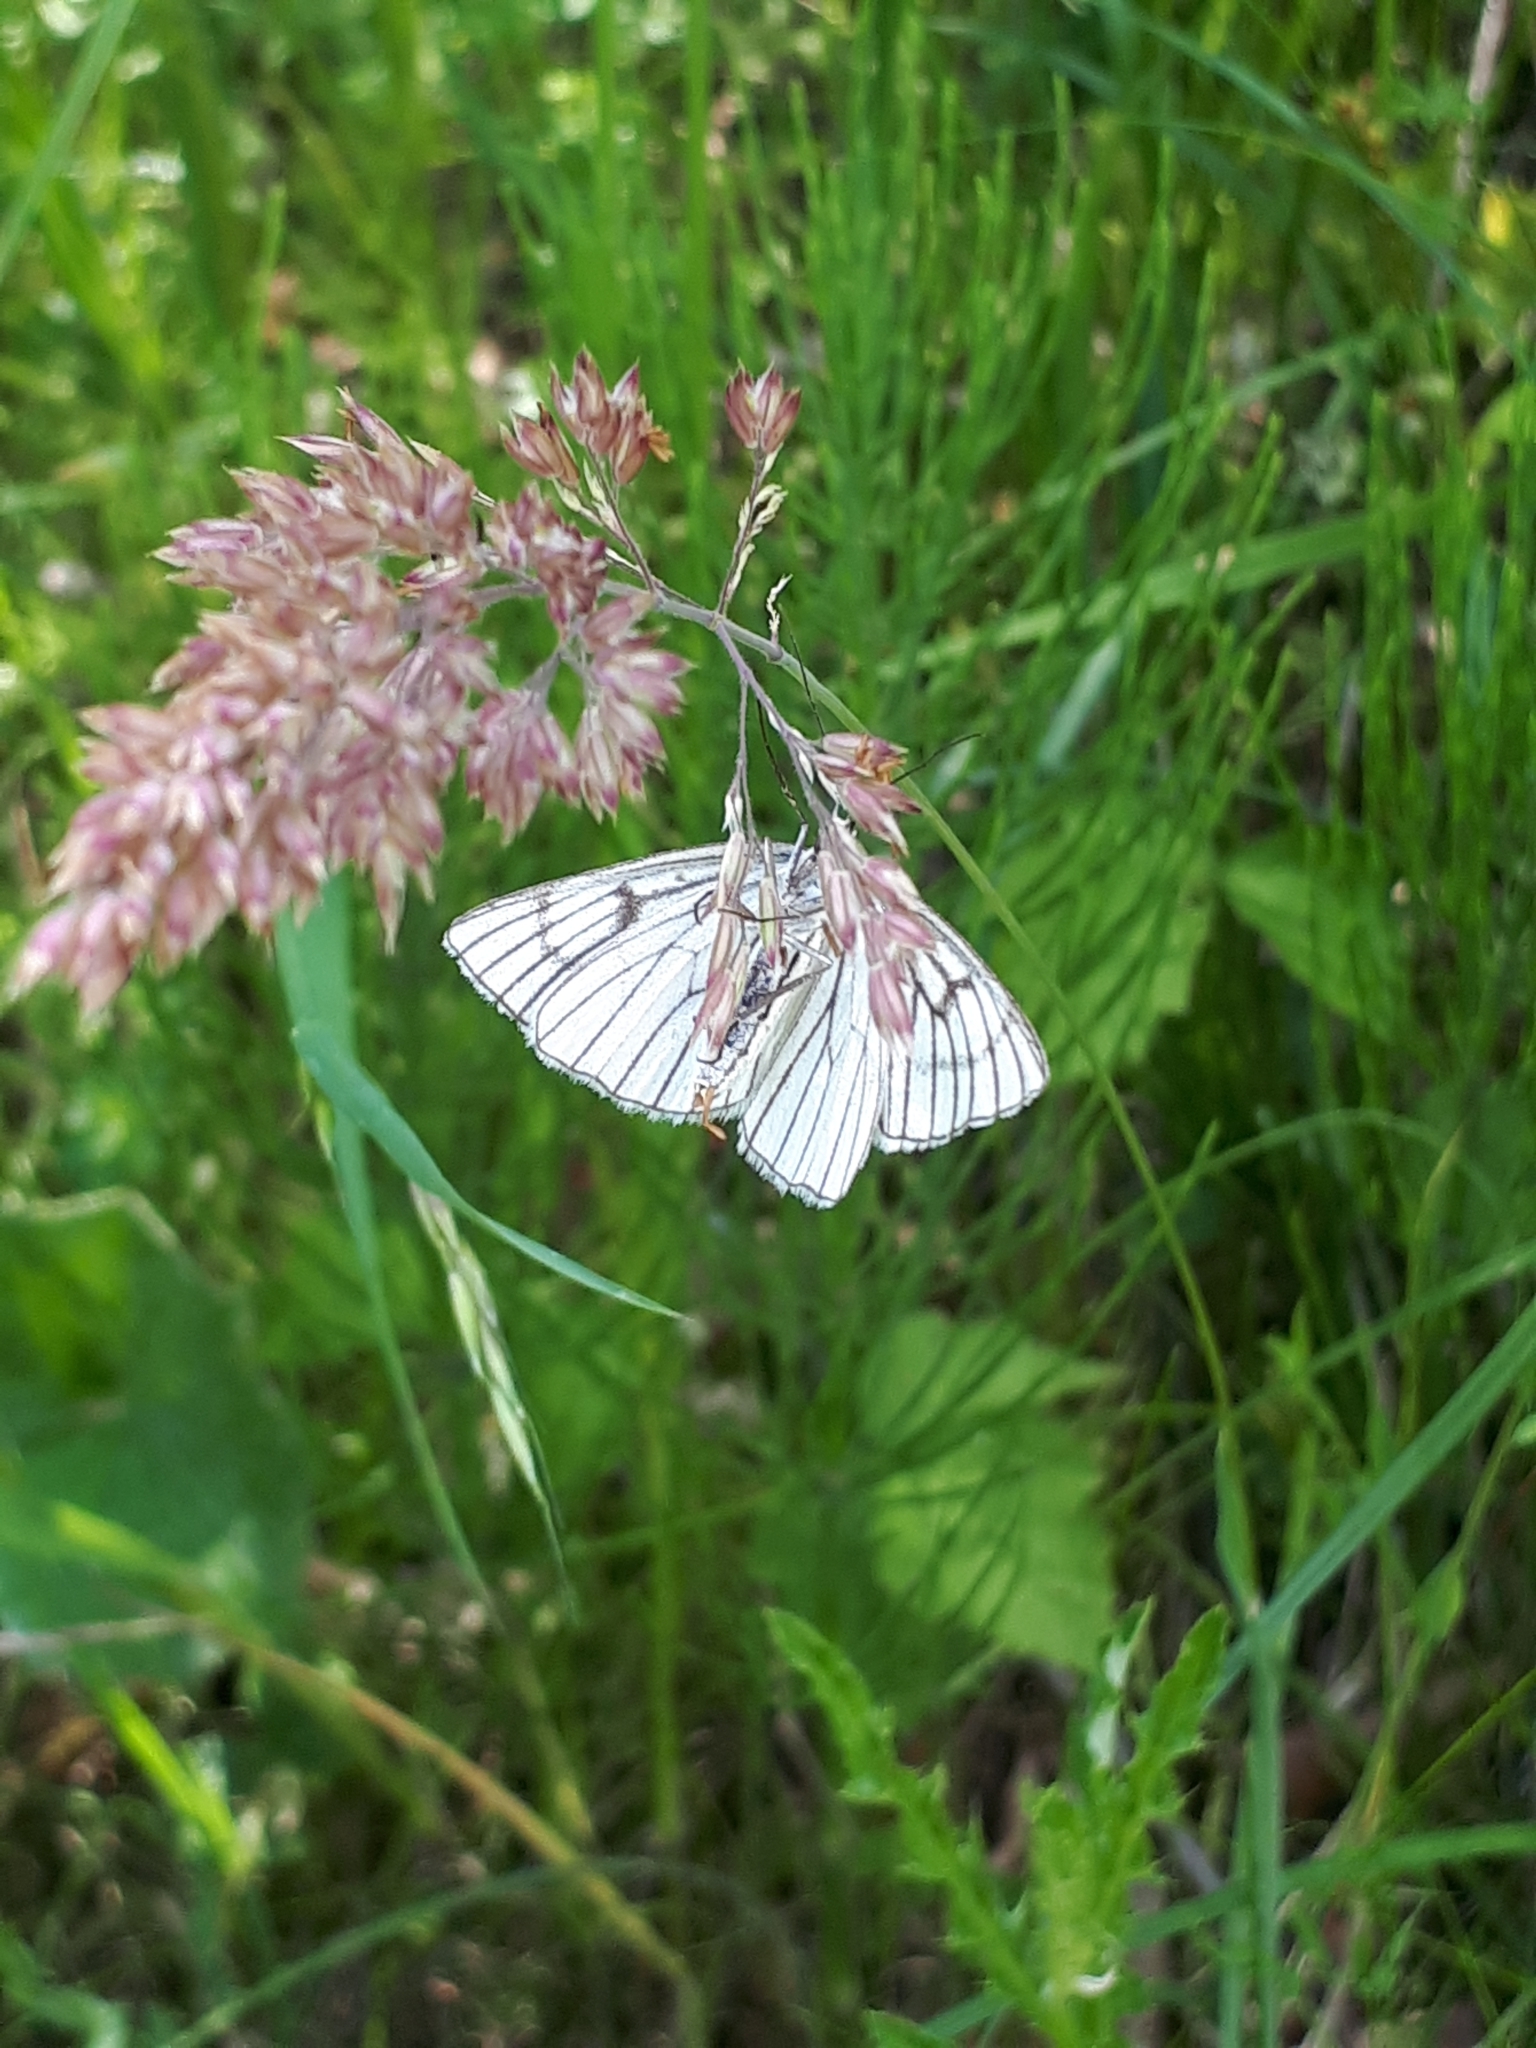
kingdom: Animalia
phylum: Arthropoda
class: Insecta
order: Lepidoptera
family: Geometridae
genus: Siona
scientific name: Siona lineata
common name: Black-veined moth
